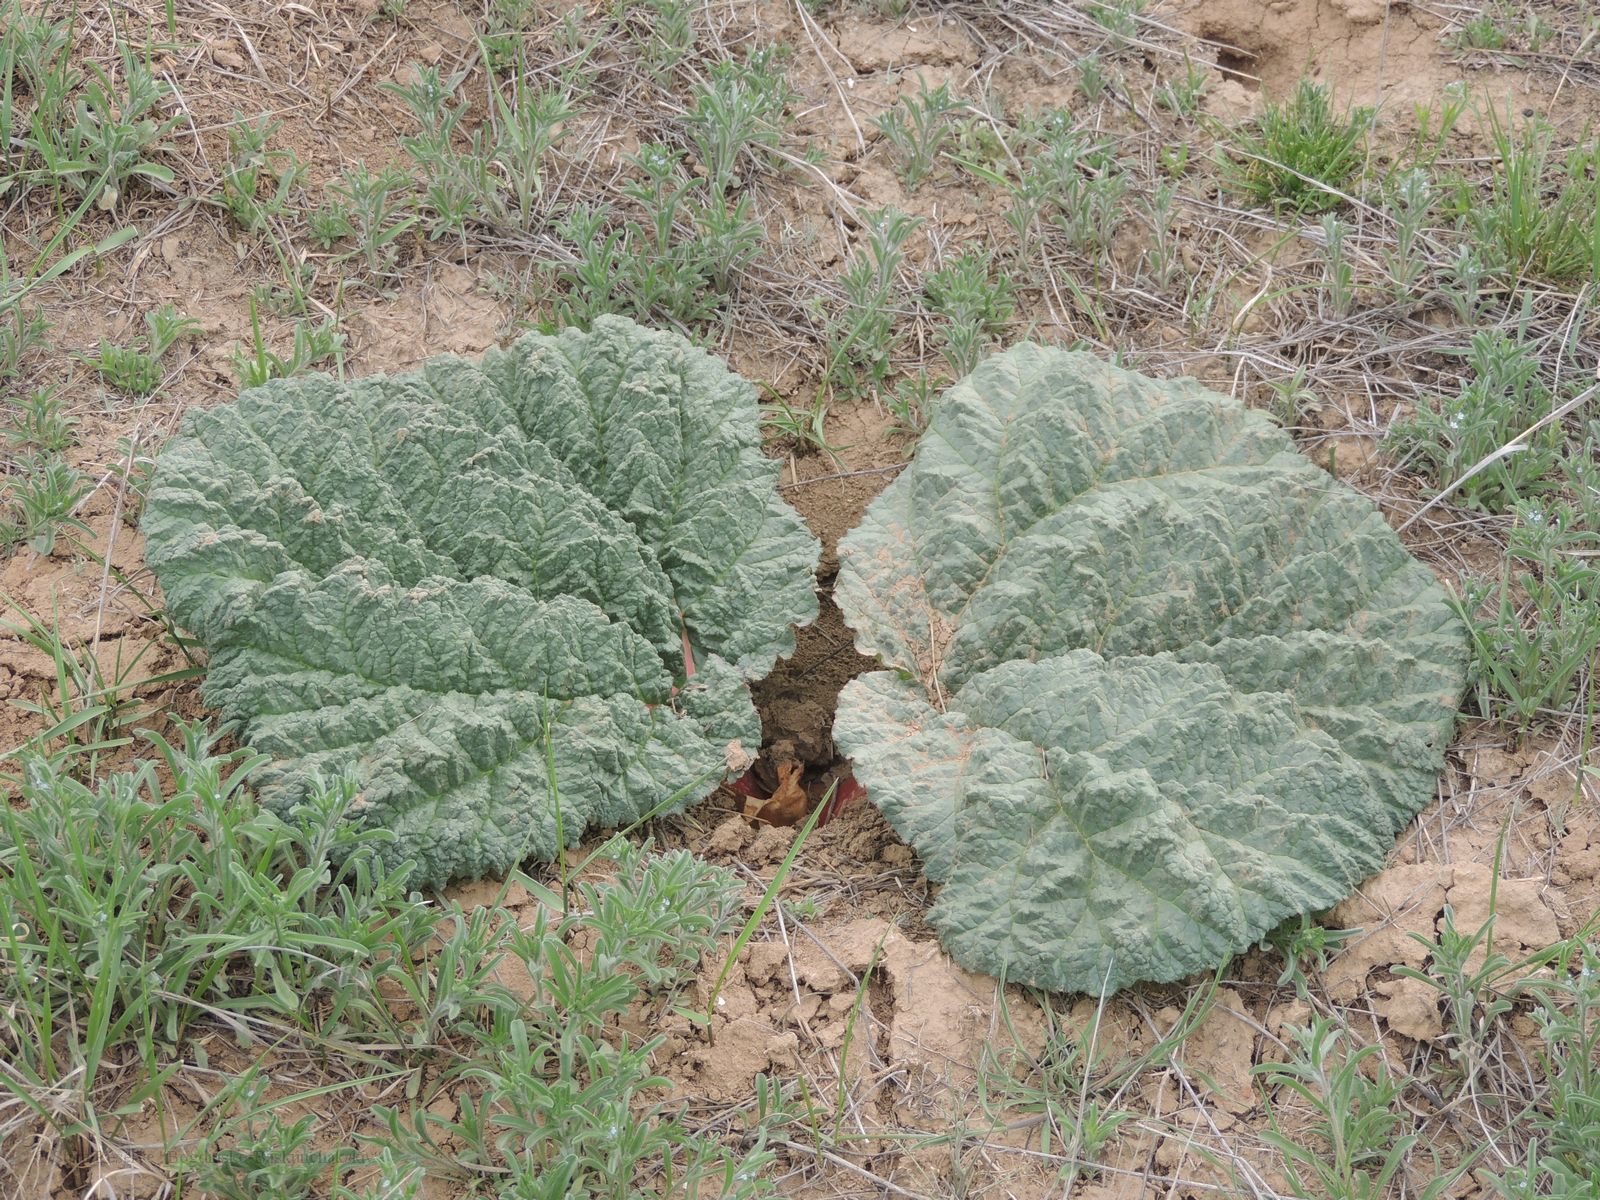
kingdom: Plantae
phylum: Tracheophyta
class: Magnoliopsida
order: Caryophyllales
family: Polygonaceae
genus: Rheum
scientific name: Rheum tataricum
